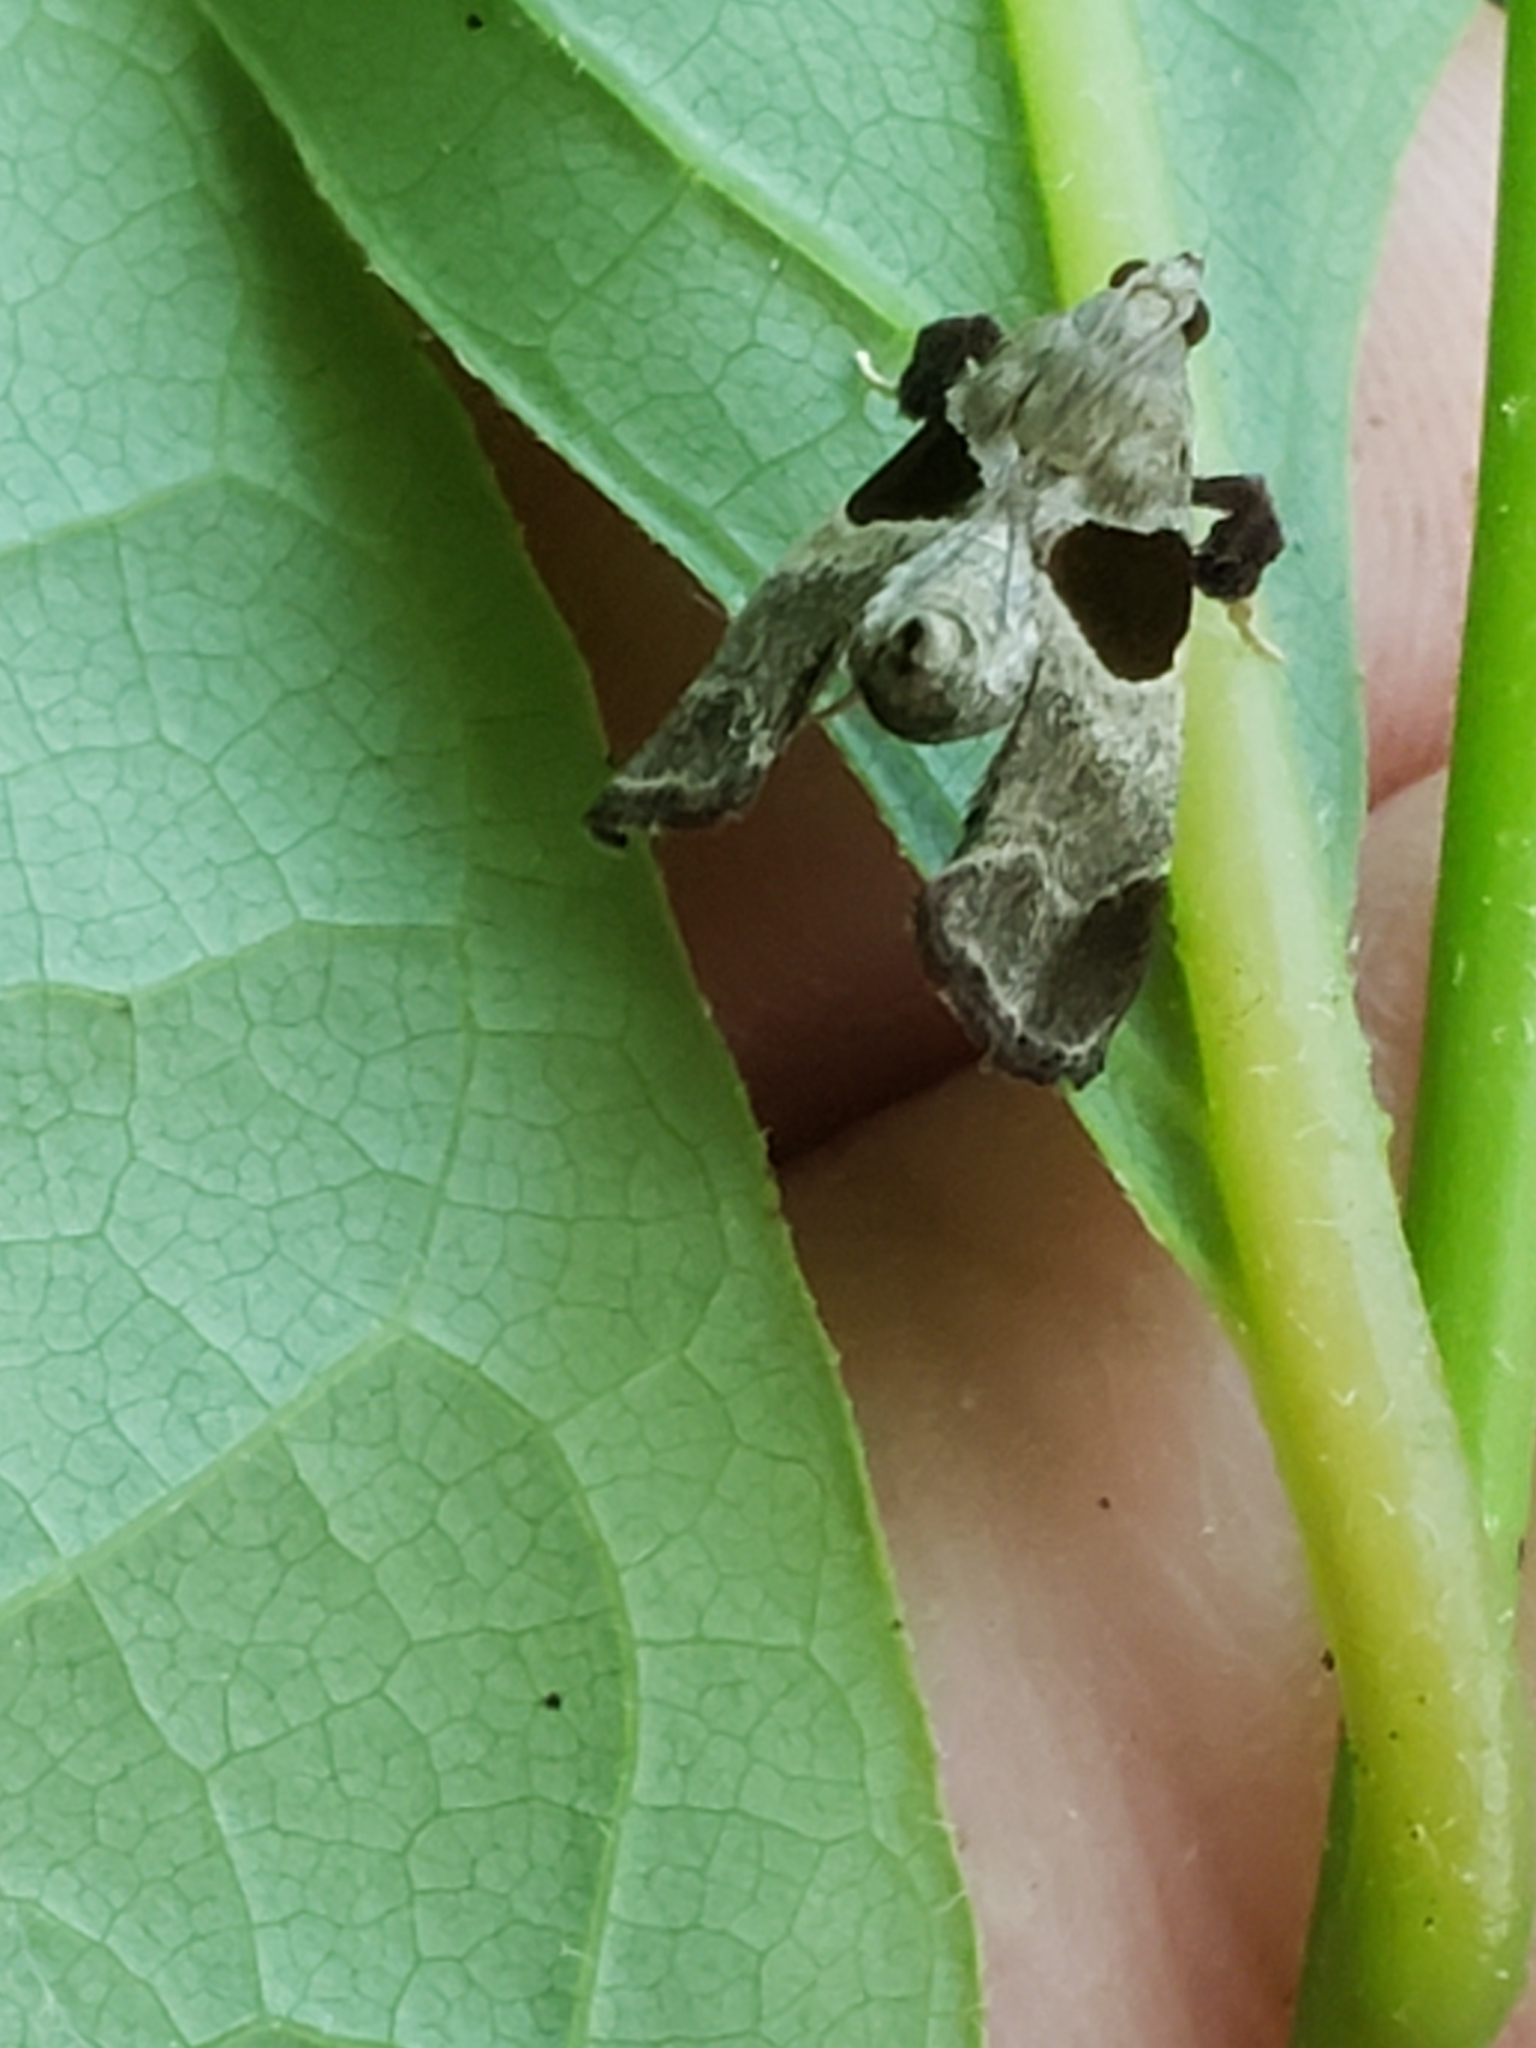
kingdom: Animalia
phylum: Arthropoda
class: Insecta
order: Lepidoptera
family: Pyralidae
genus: Tosale
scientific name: Tosale oviplagalis
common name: Dimorphic tosale moth
